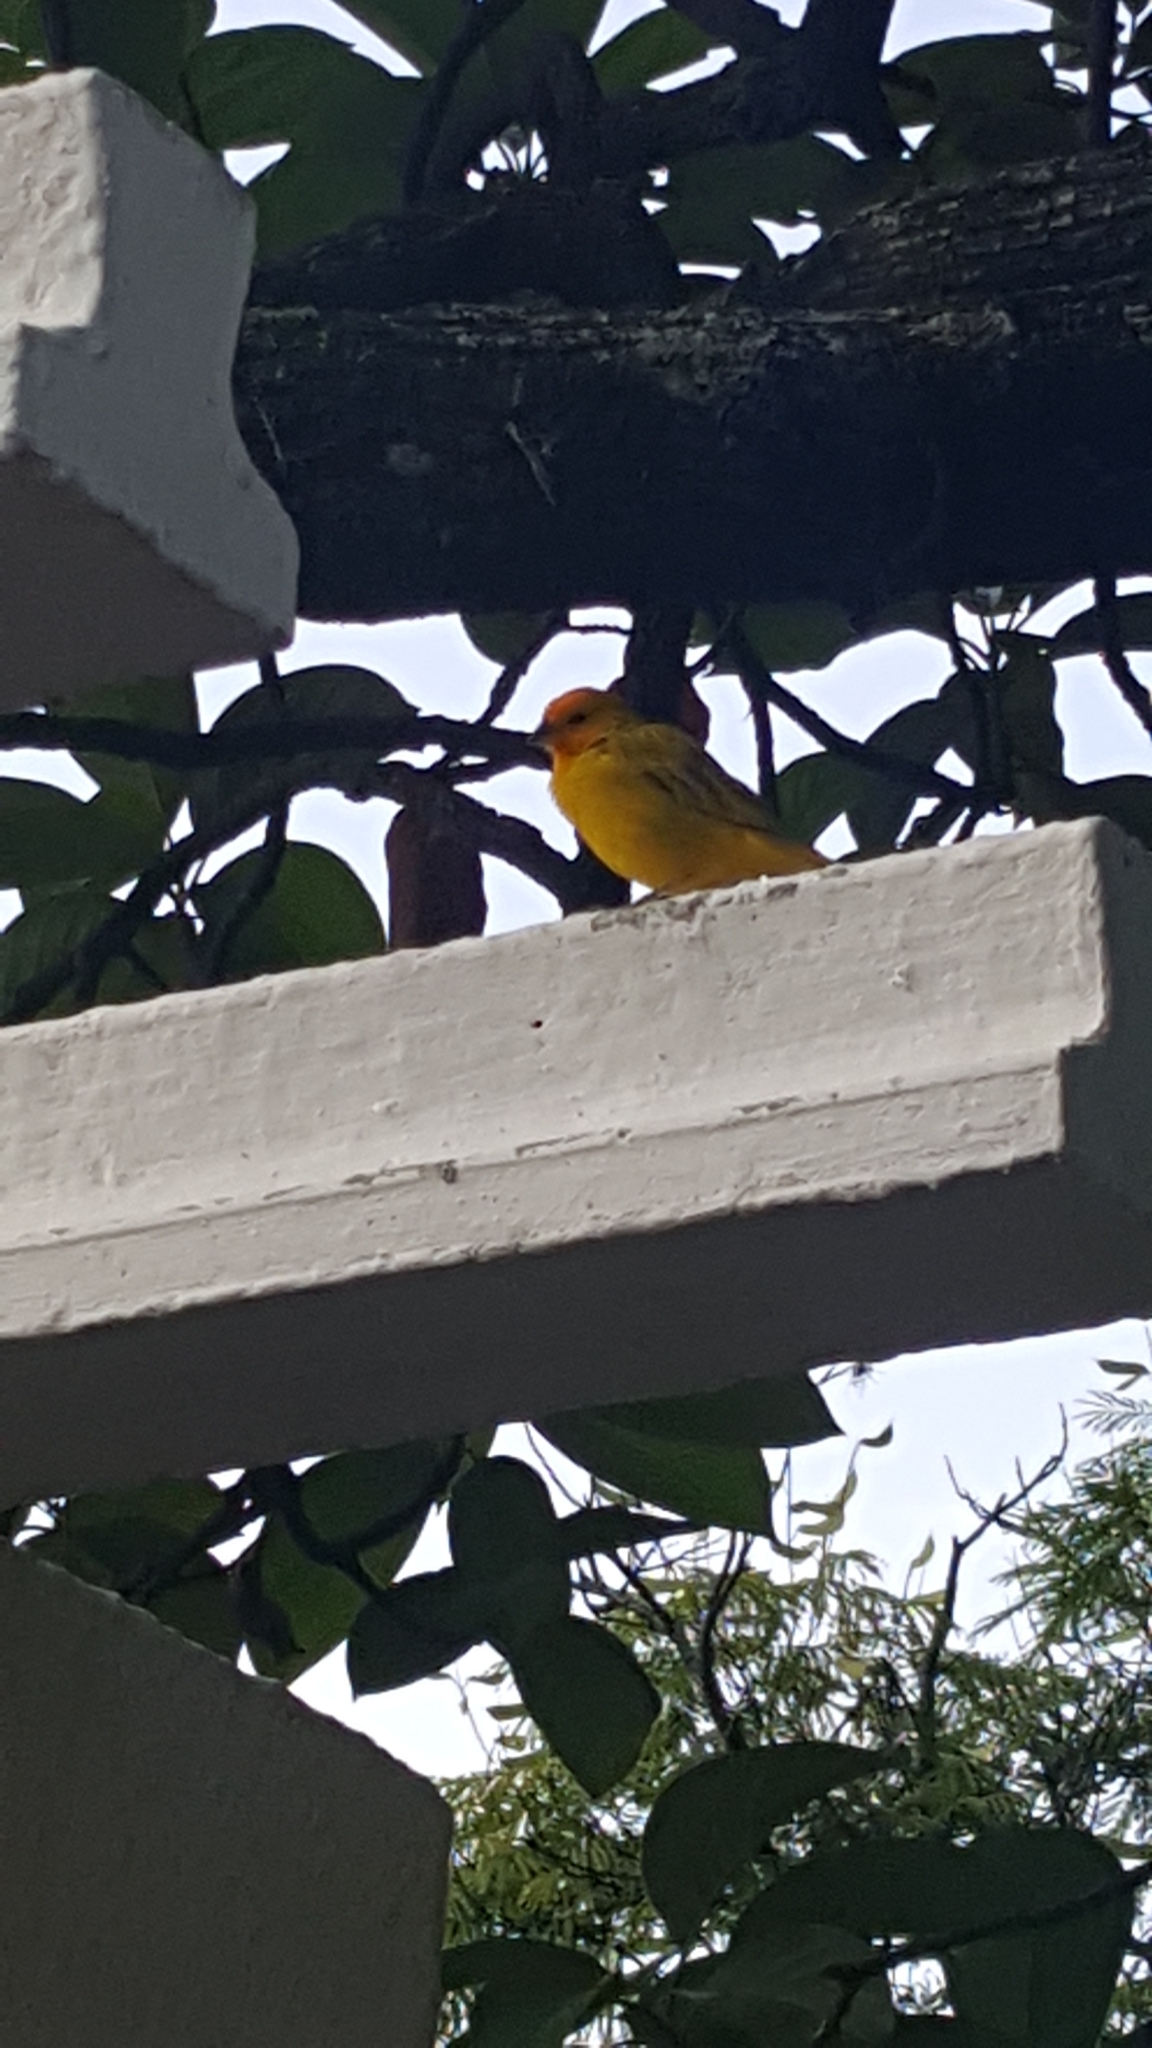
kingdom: Animalia
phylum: Chordata
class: Aves
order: Passeriformes
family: Thraupidae
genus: Sicalis
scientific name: Sicalis flaveola
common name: Saffron finch
